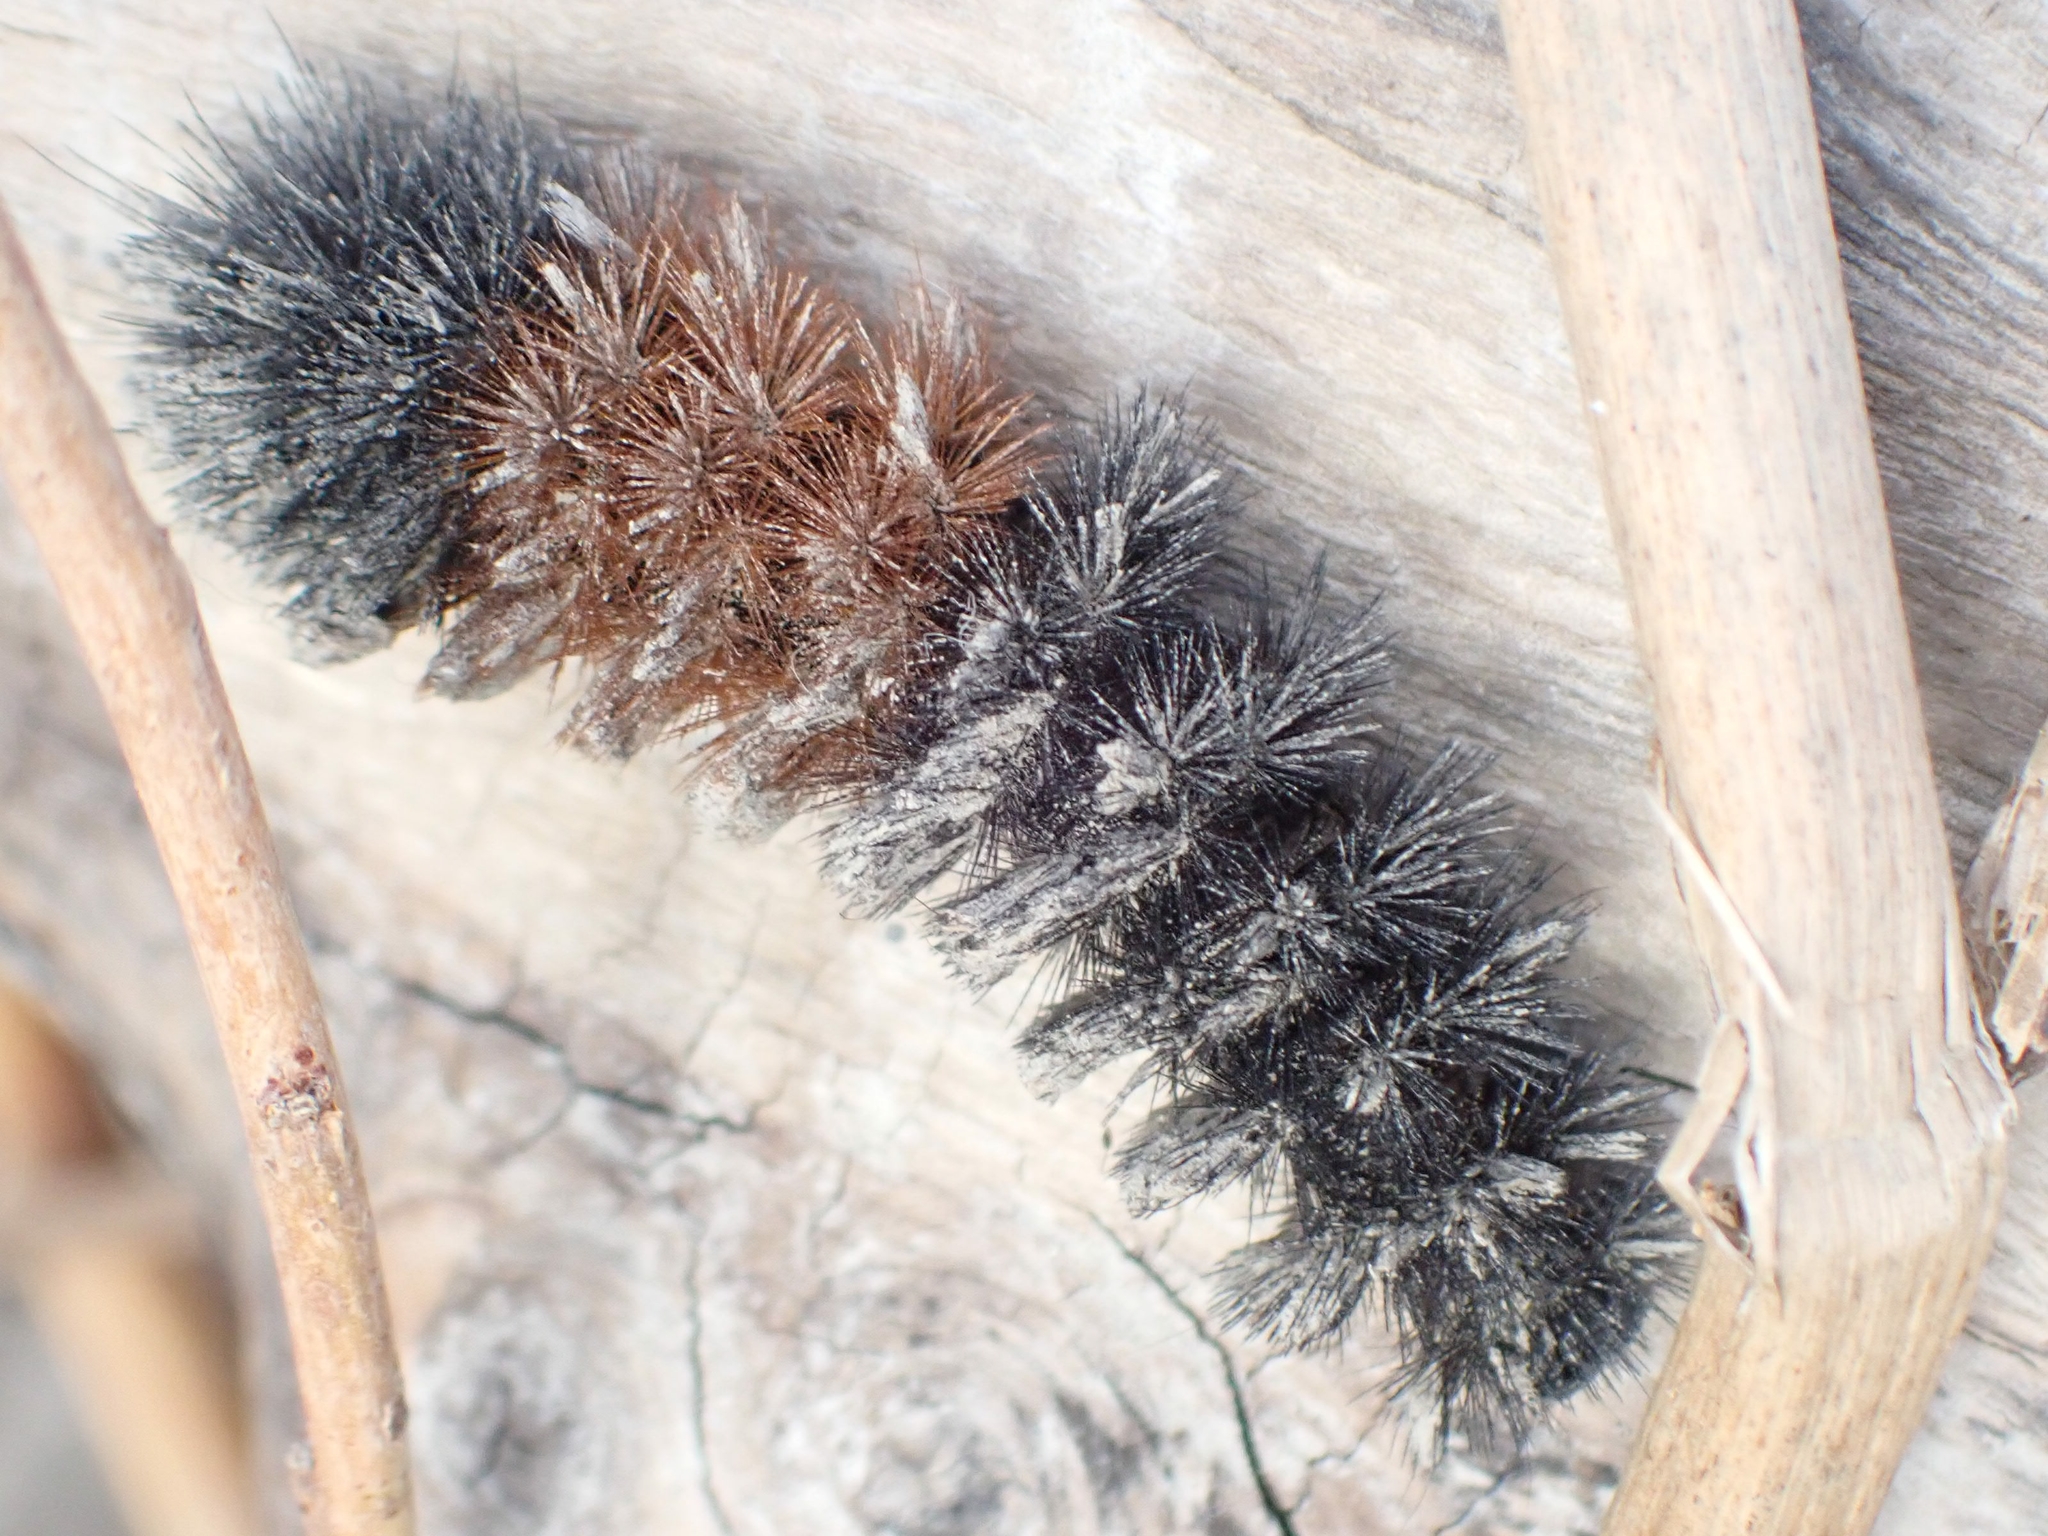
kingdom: Animalia
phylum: Arthropoda
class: Insecta
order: Lepidoptera
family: Erebidae
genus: Pyrrharctia
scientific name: Pyrrharctia isabella
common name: Isabella tiger moth
